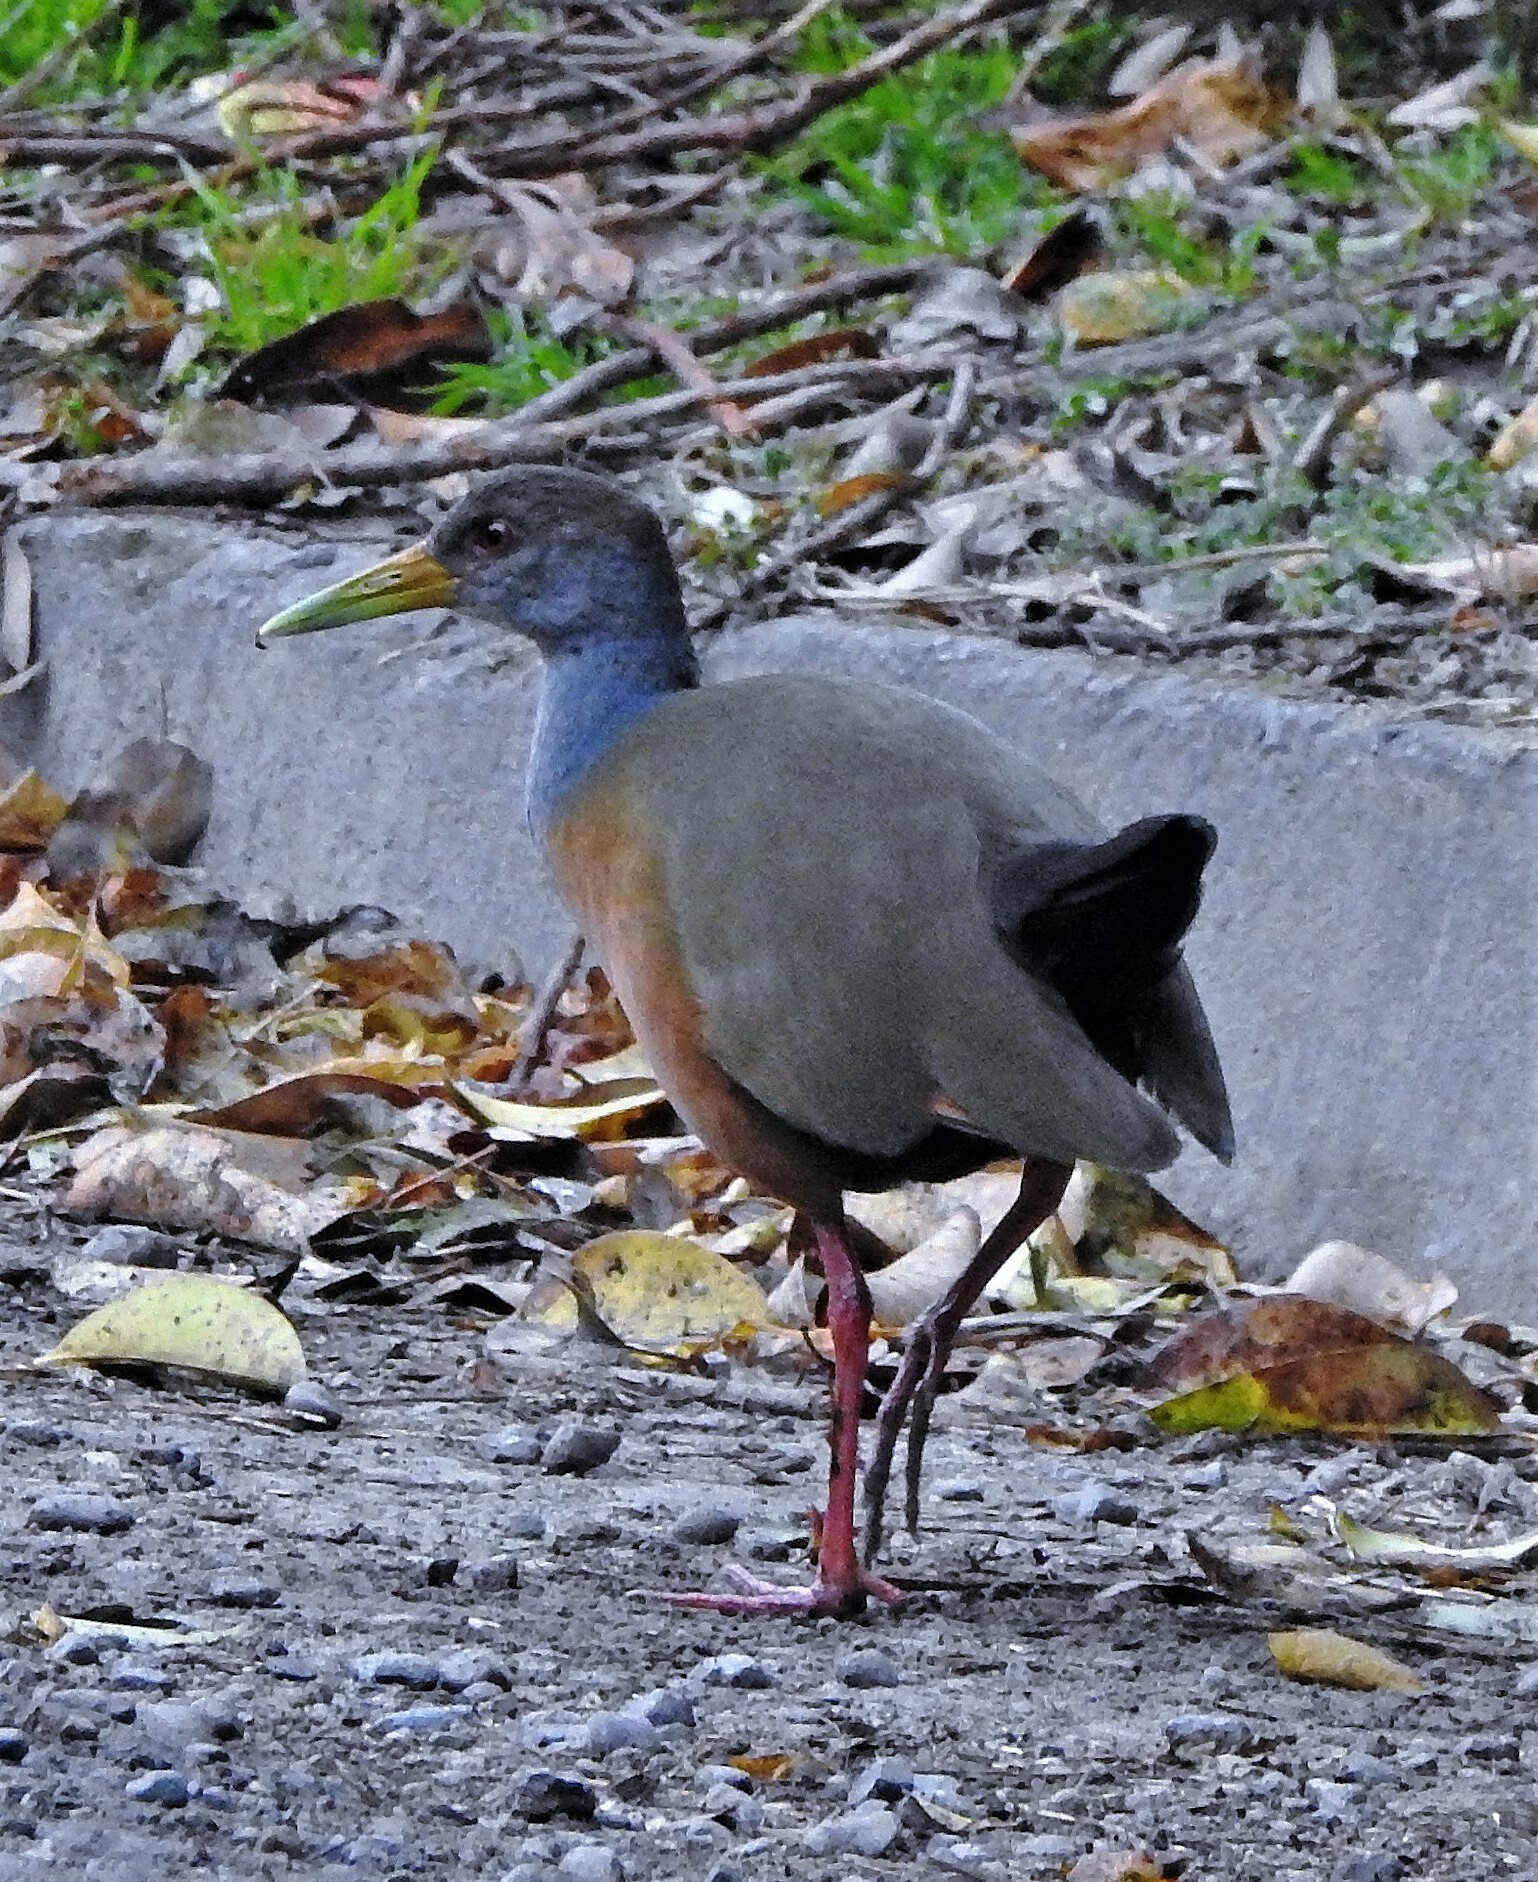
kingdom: Animalia
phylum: Chordata
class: Aves
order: Gruiformes
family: Rallidae
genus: Aramides
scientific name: Aramides cajanea
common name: Gray-necked wood-rail
